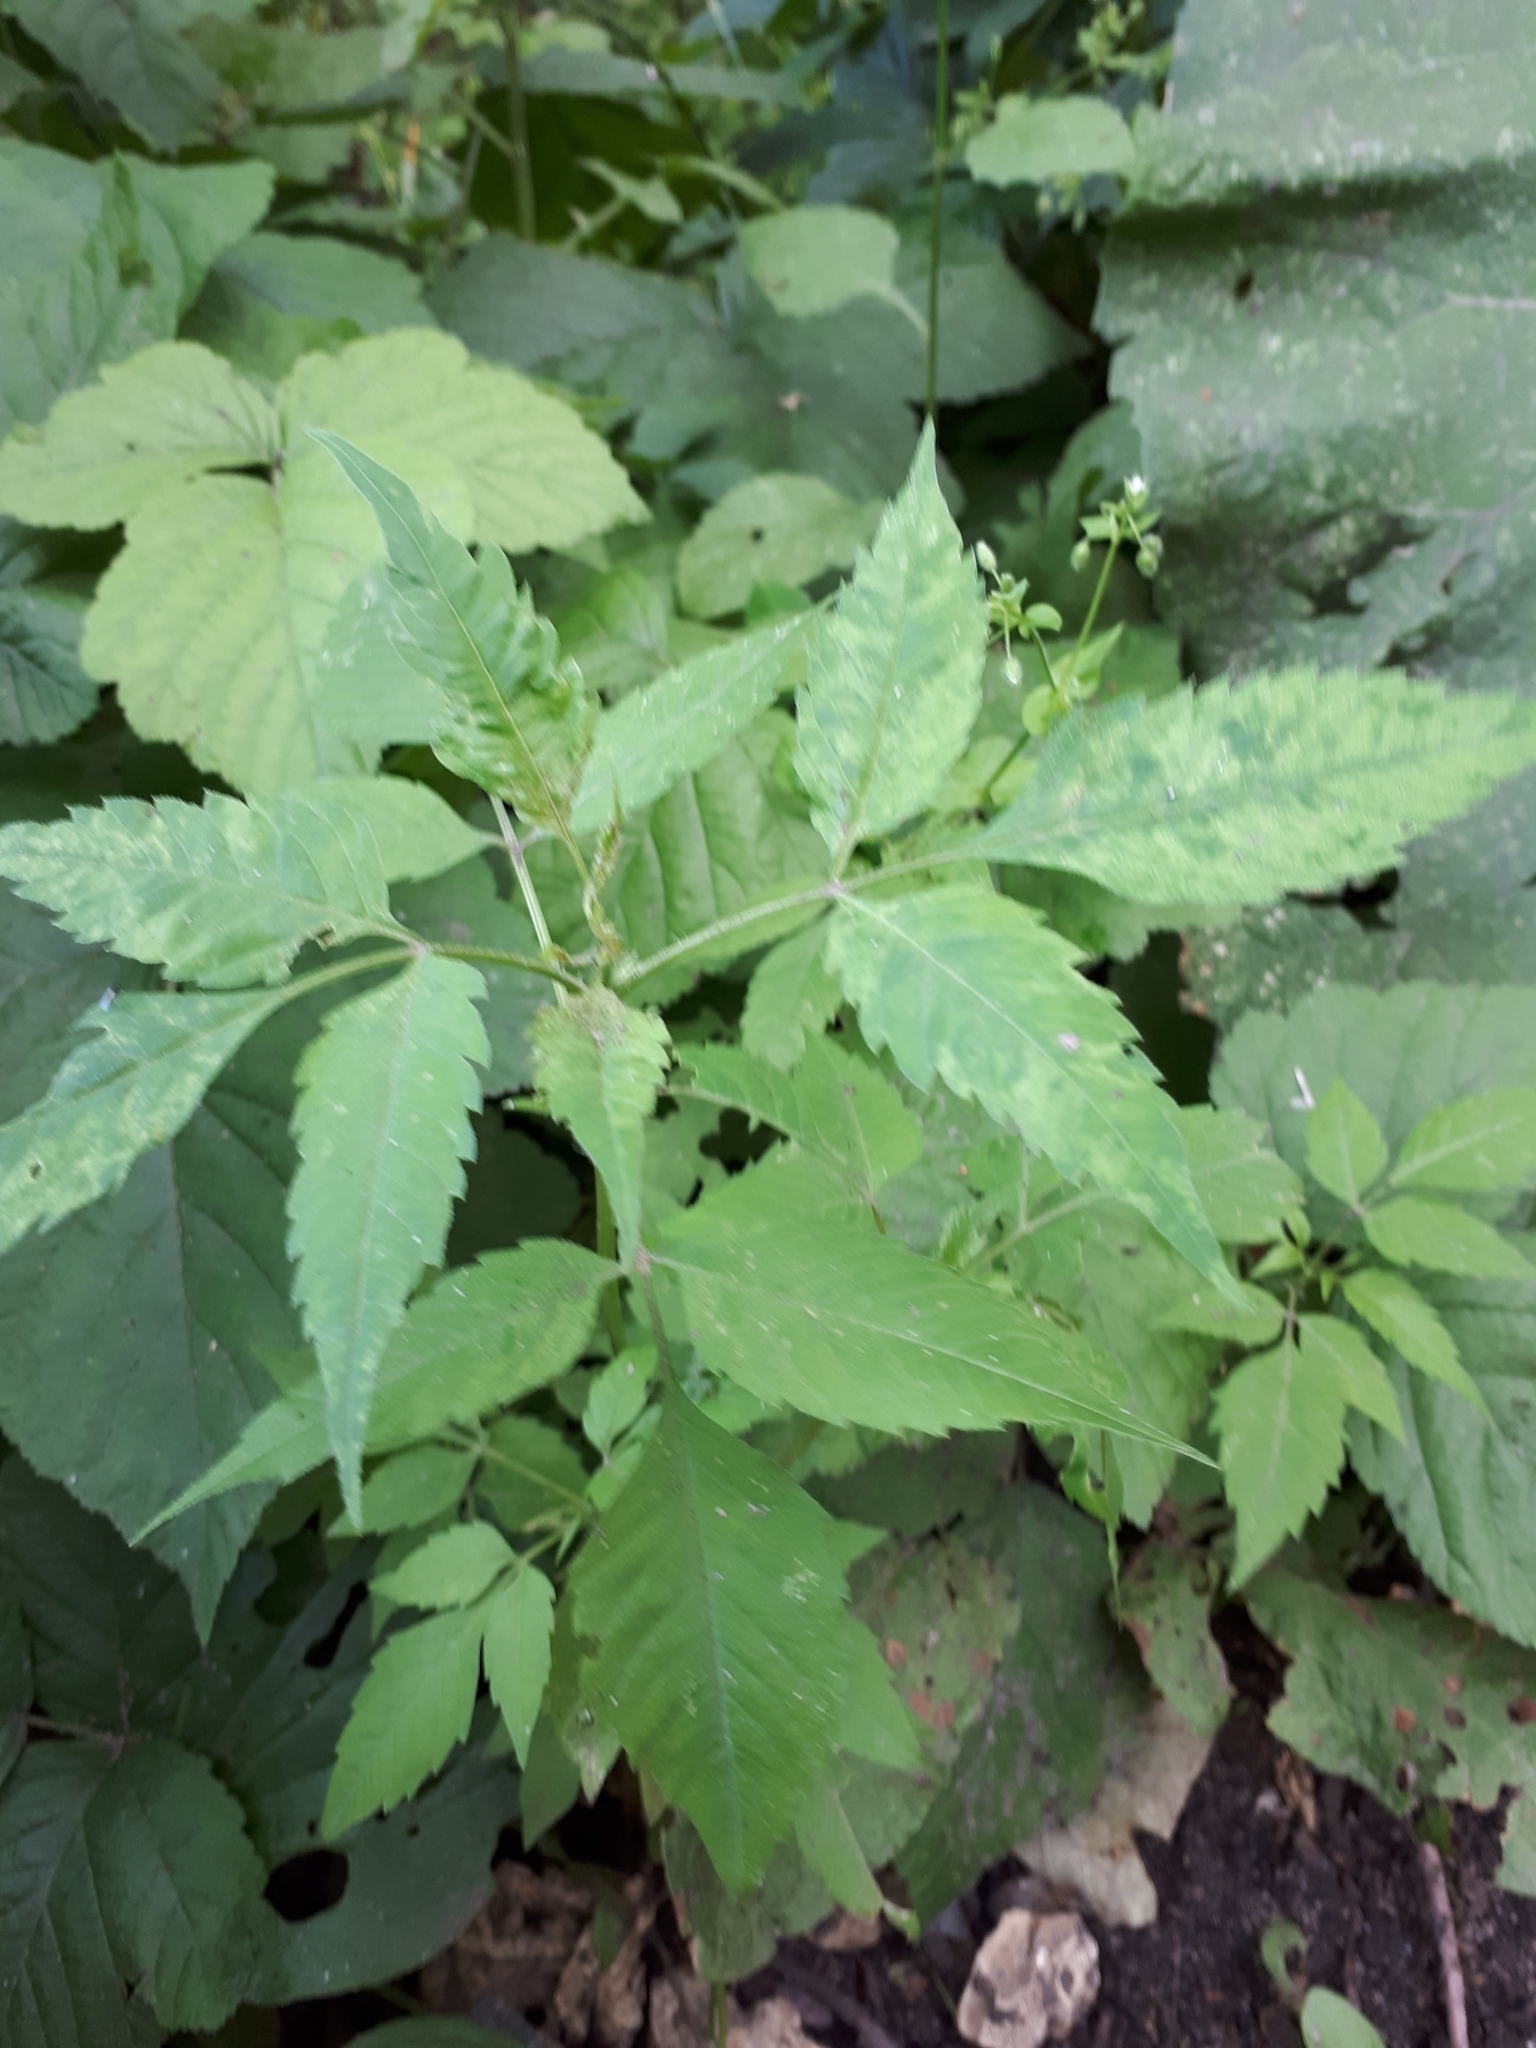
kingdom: Plantae
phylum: Tracheophyta
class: Magnoliopsida
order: Asterales
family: Asteraceae
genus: Bidens
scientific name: Bidens frondosa
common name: Beggarticks
